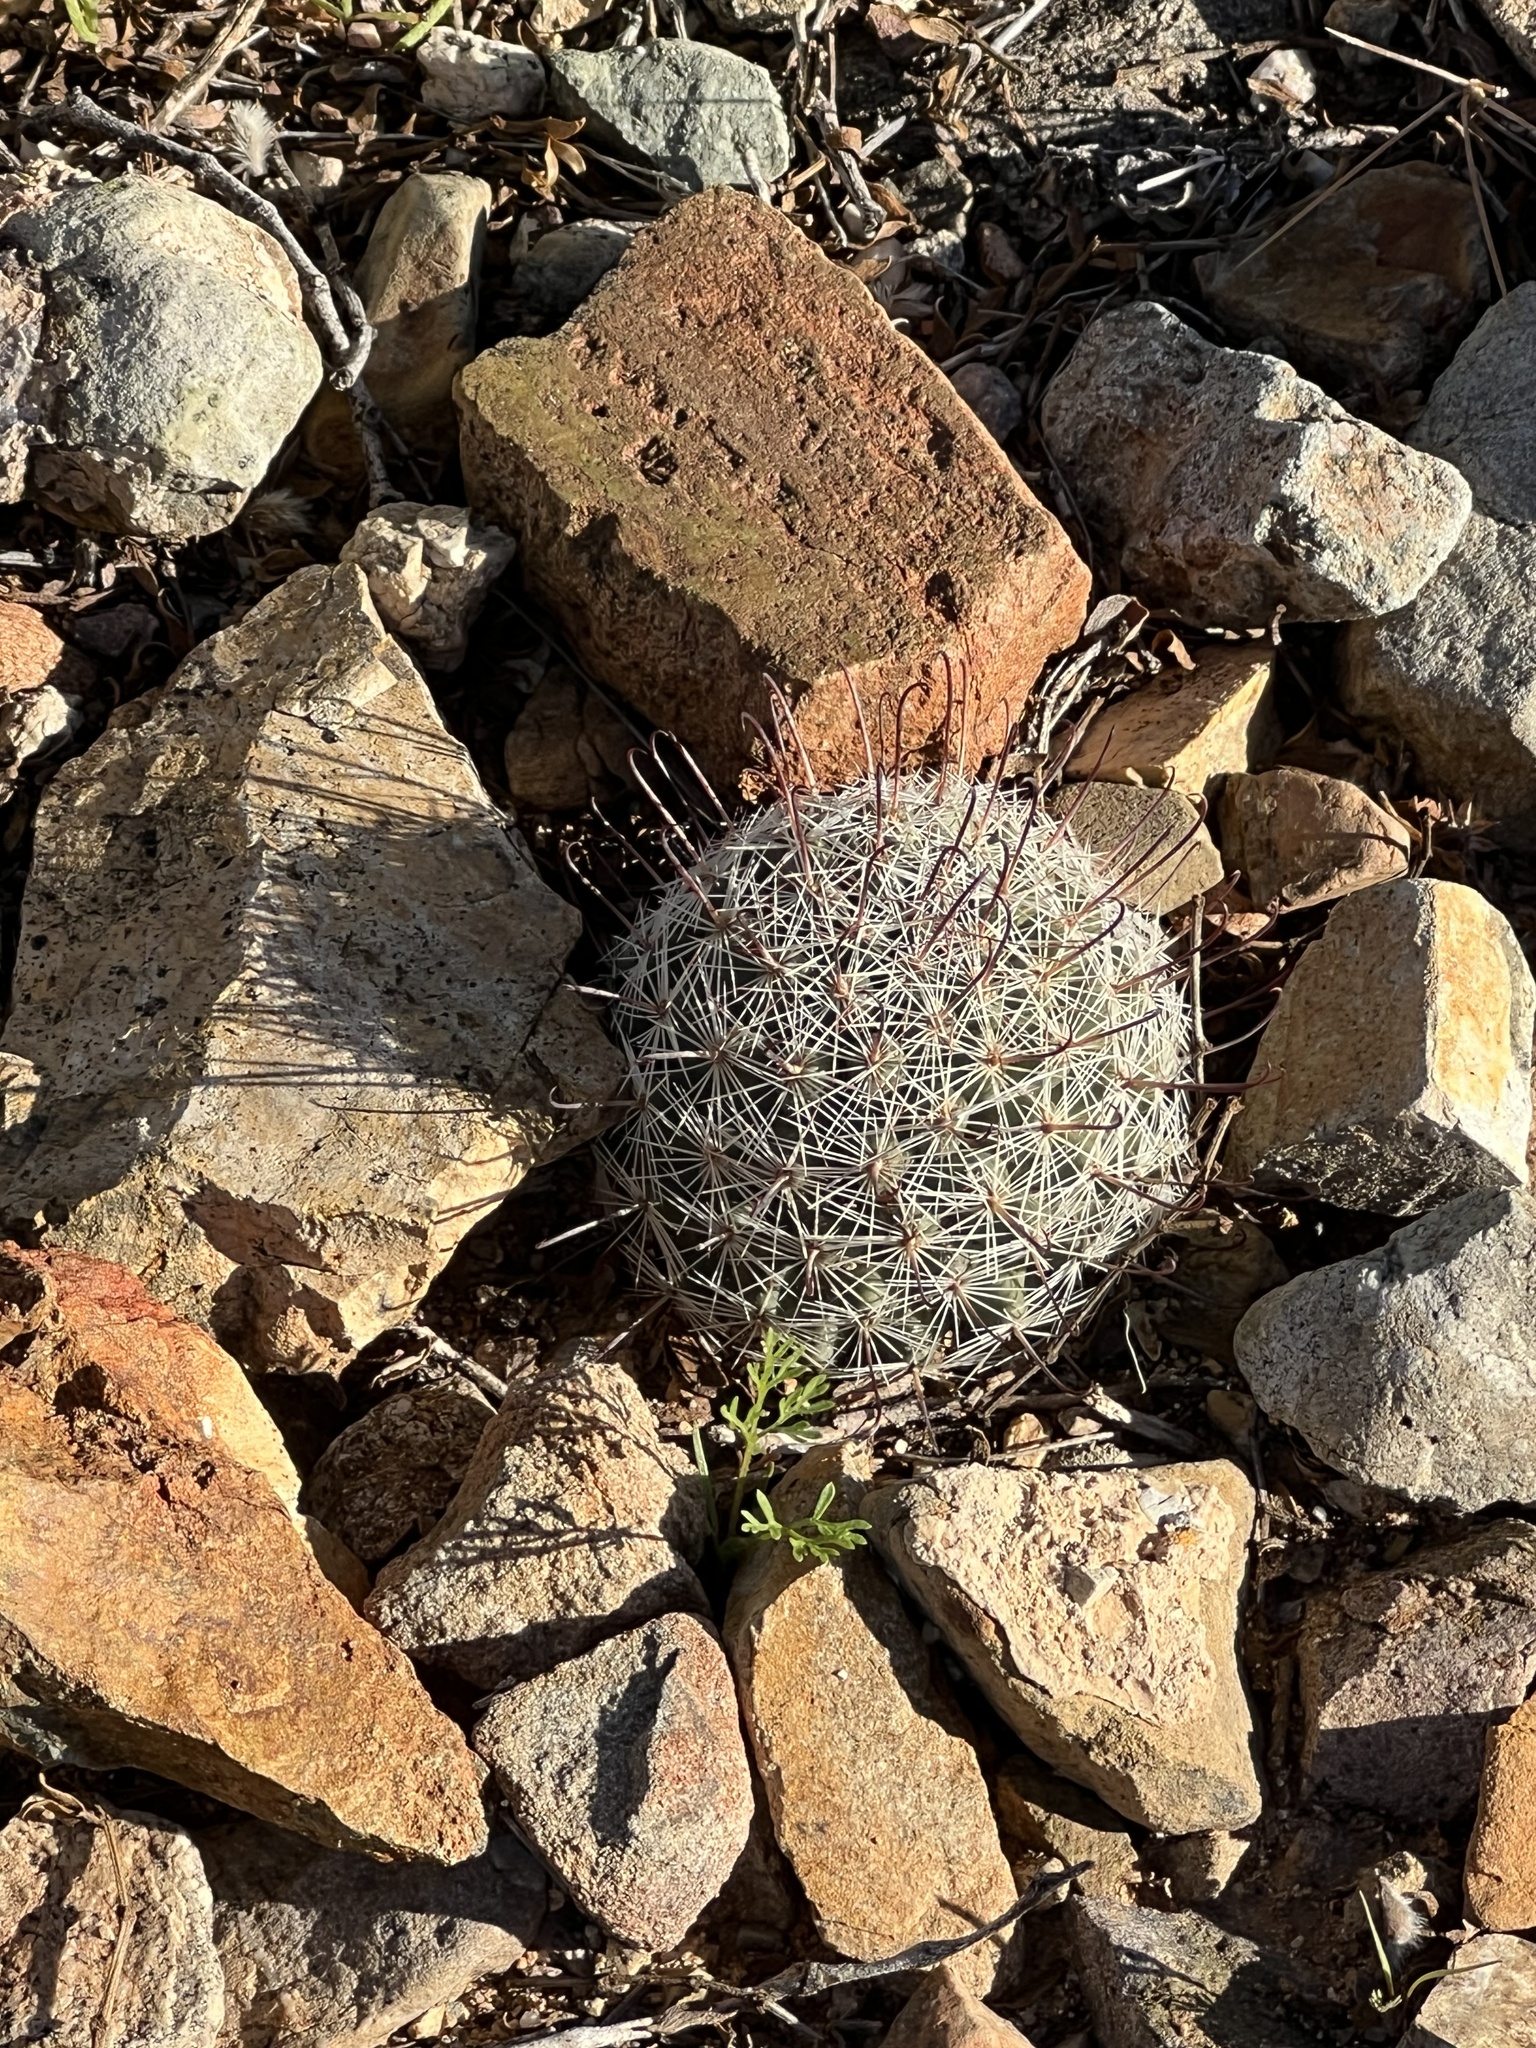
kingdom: Plantae
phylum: Tracheophyta
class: Magnoliopsida
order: Caryophyllales
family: Cactaceae
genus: Cochemiea
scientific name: Cochemiea grahamii
